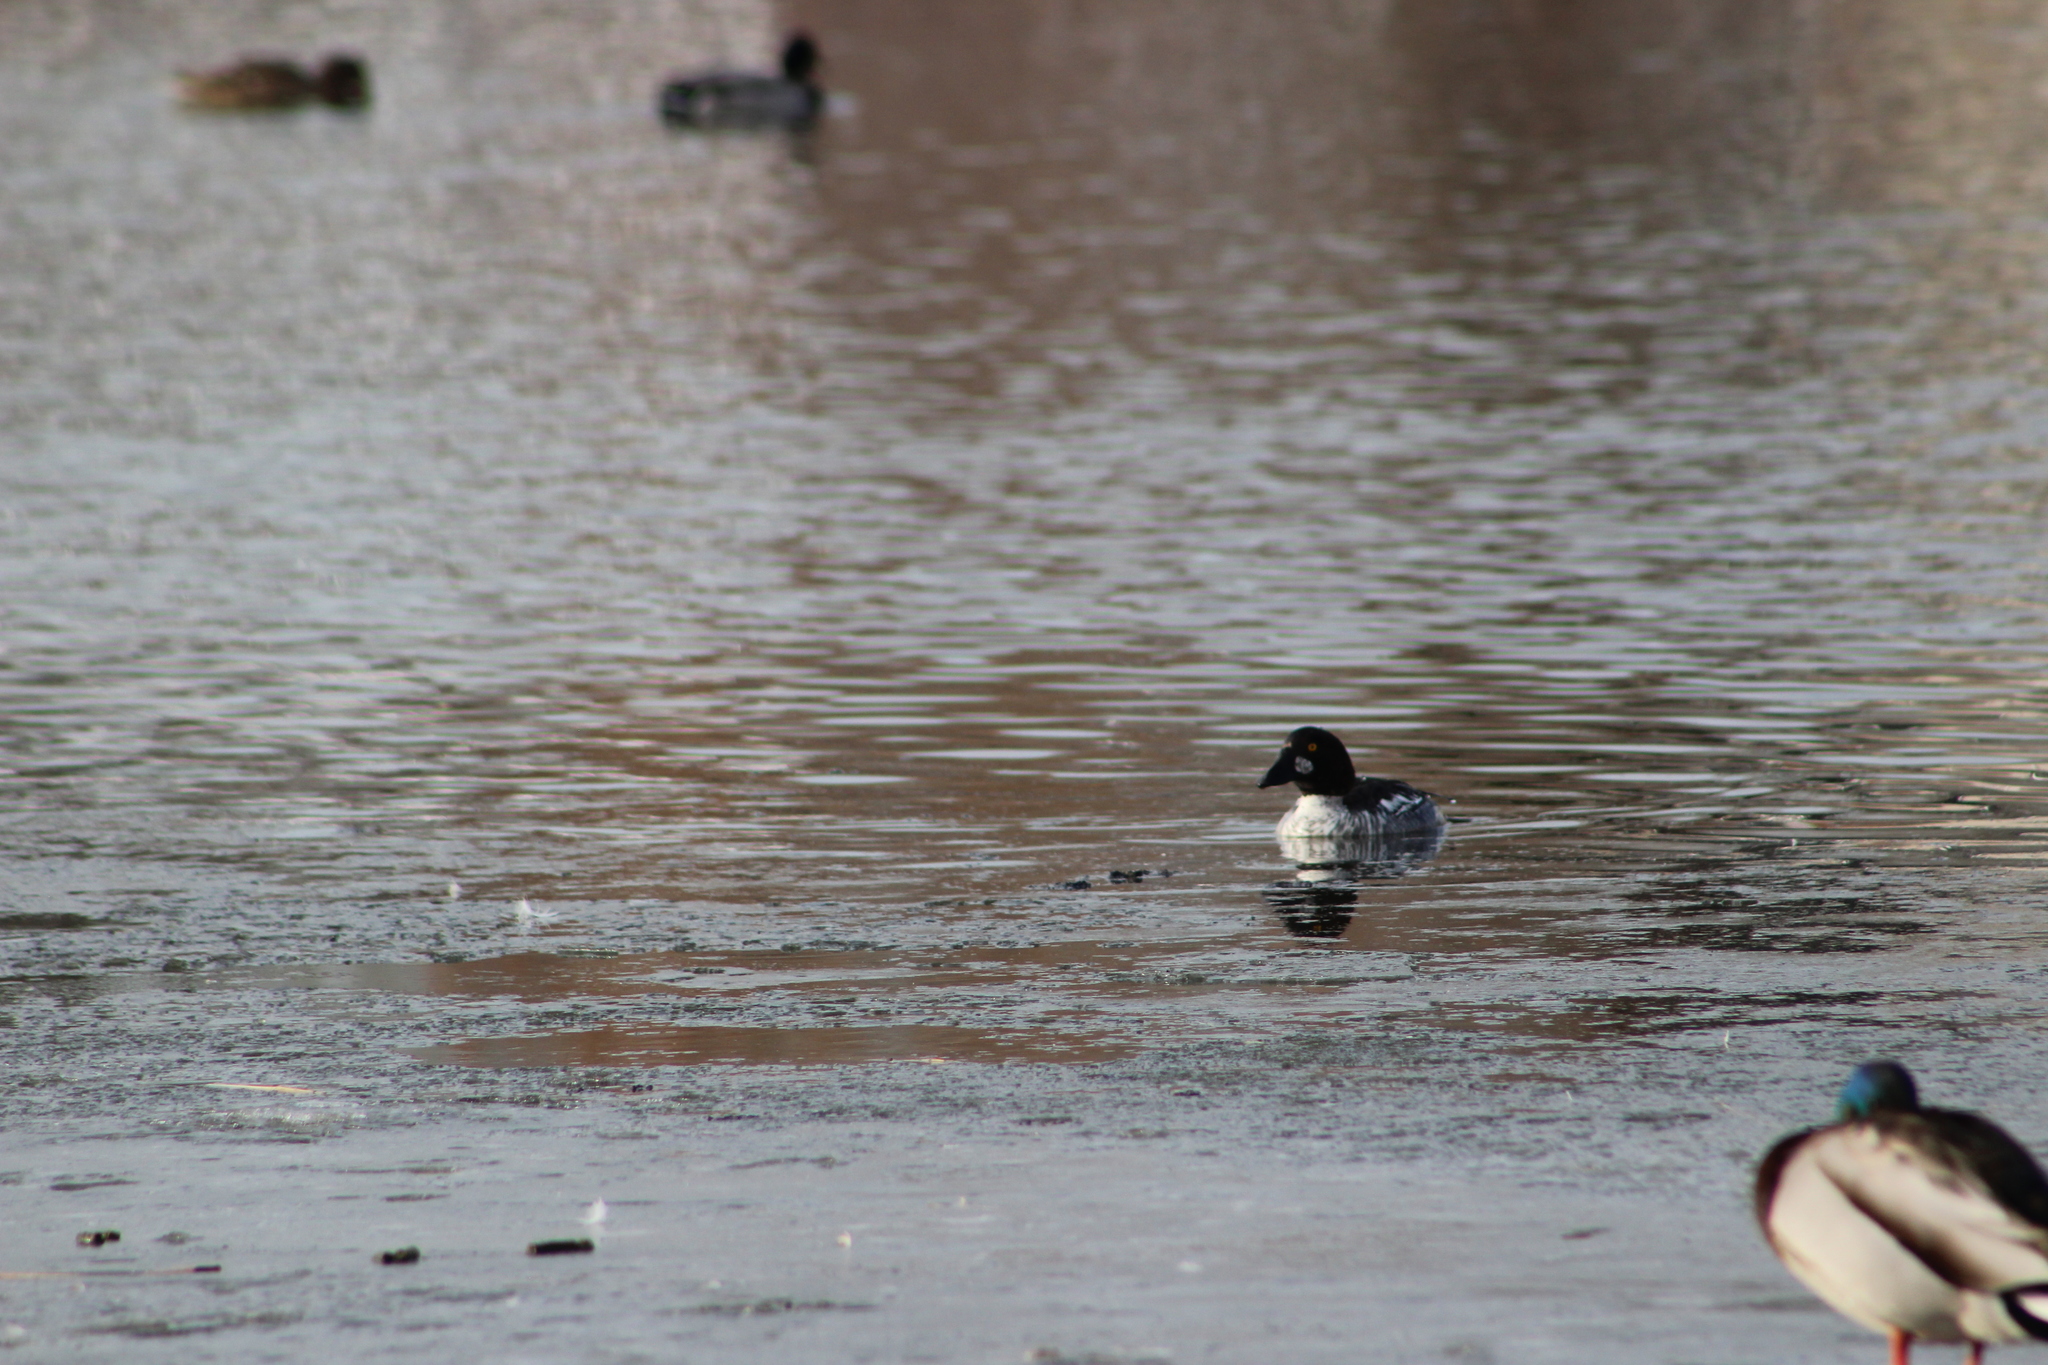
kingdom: Animalia
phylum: Chordata
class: Aves
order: Anseriformes
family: Anatidae
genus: Bucephala
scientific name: Bucephala clangula
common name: Common goldeneye
